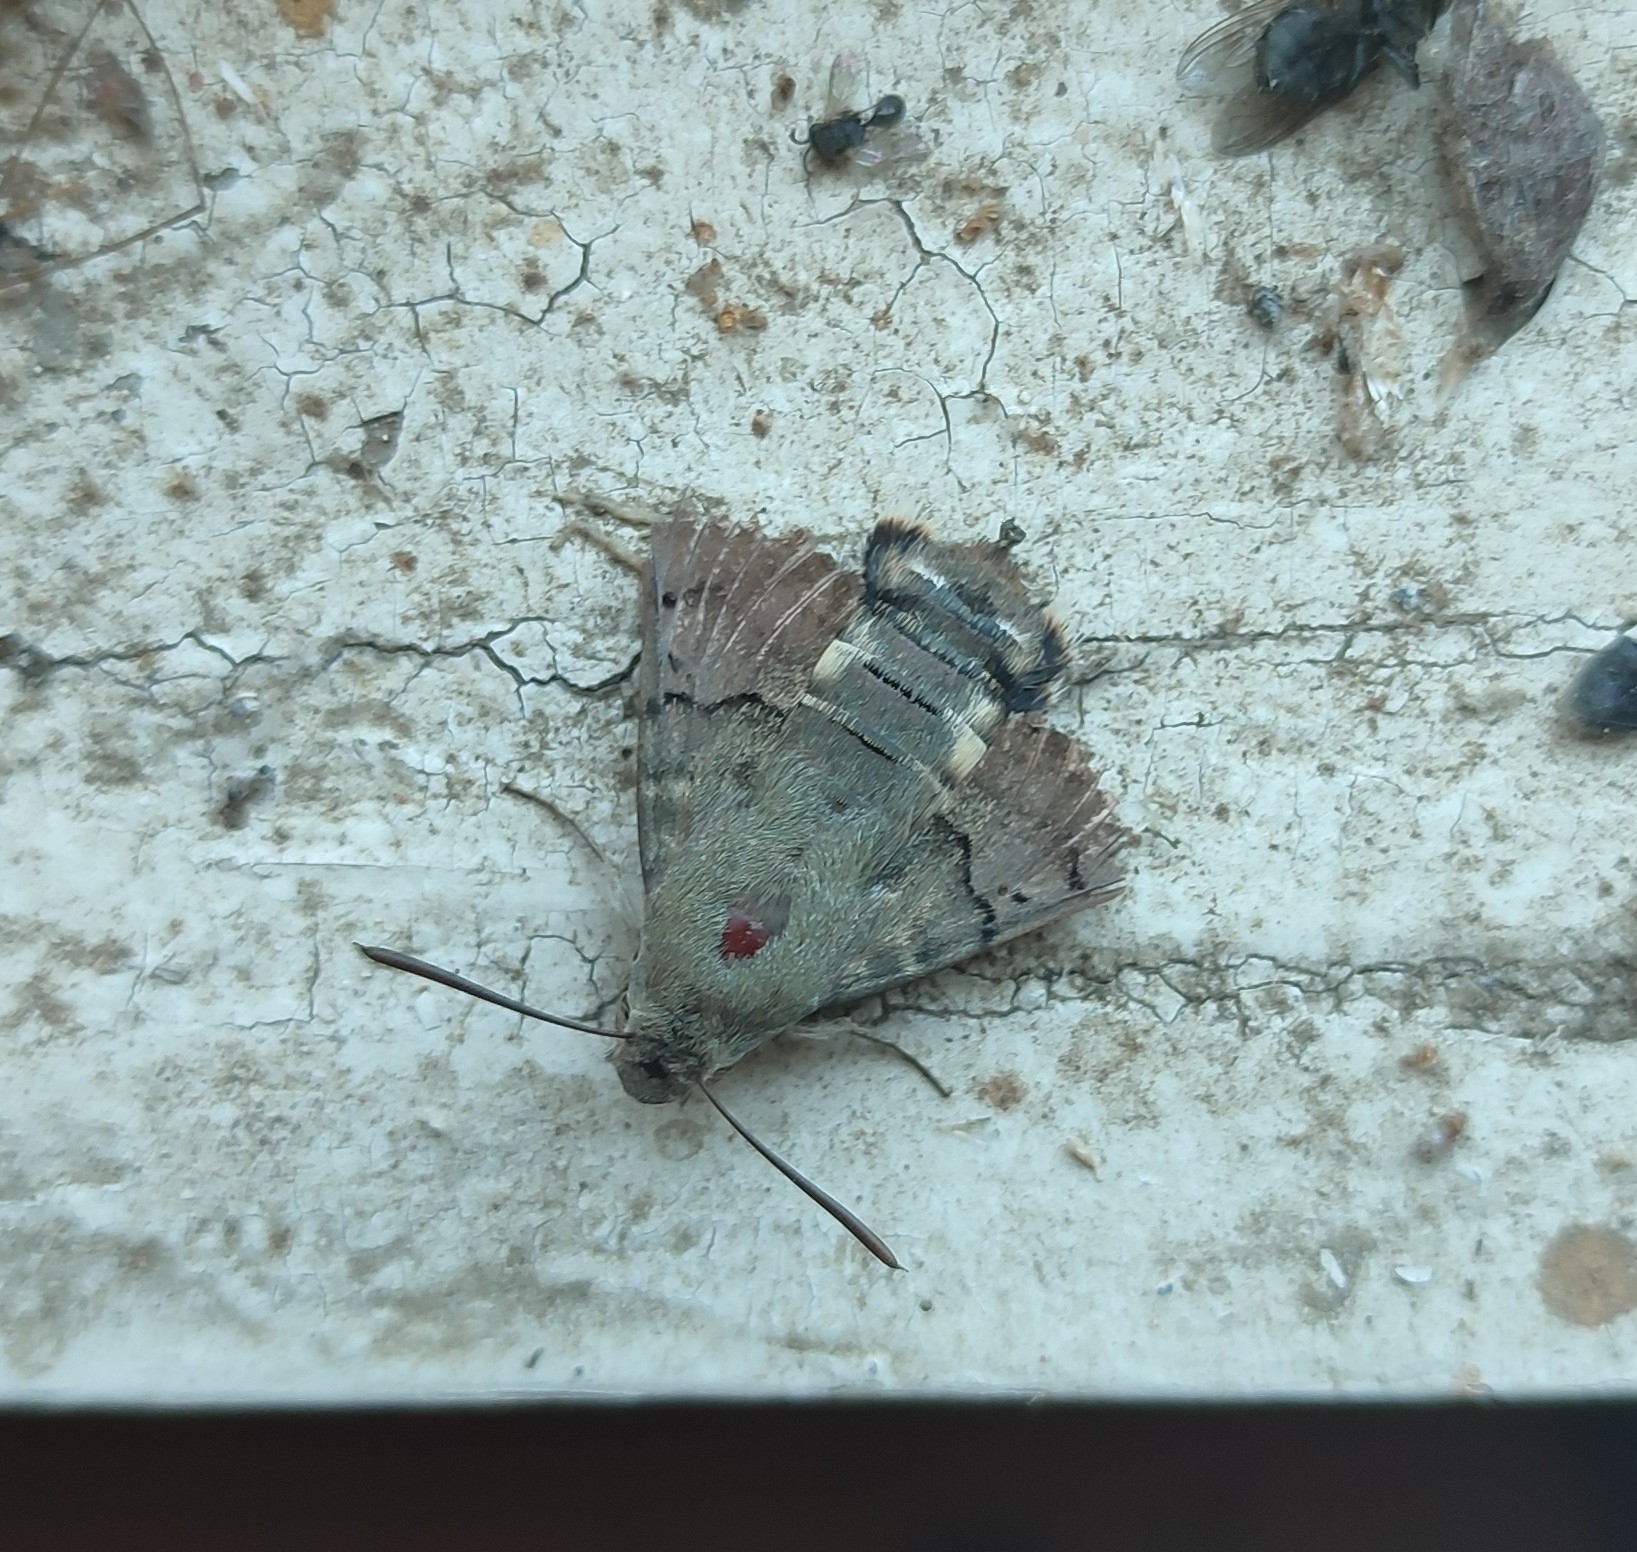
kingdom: Animalia
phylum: Arthropoda
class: Insecta
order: Lepidoptera
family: Sphingidae
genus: Macroglossum
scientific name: Macroglossum stellatarum
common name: Humming-bird hawk-moth
